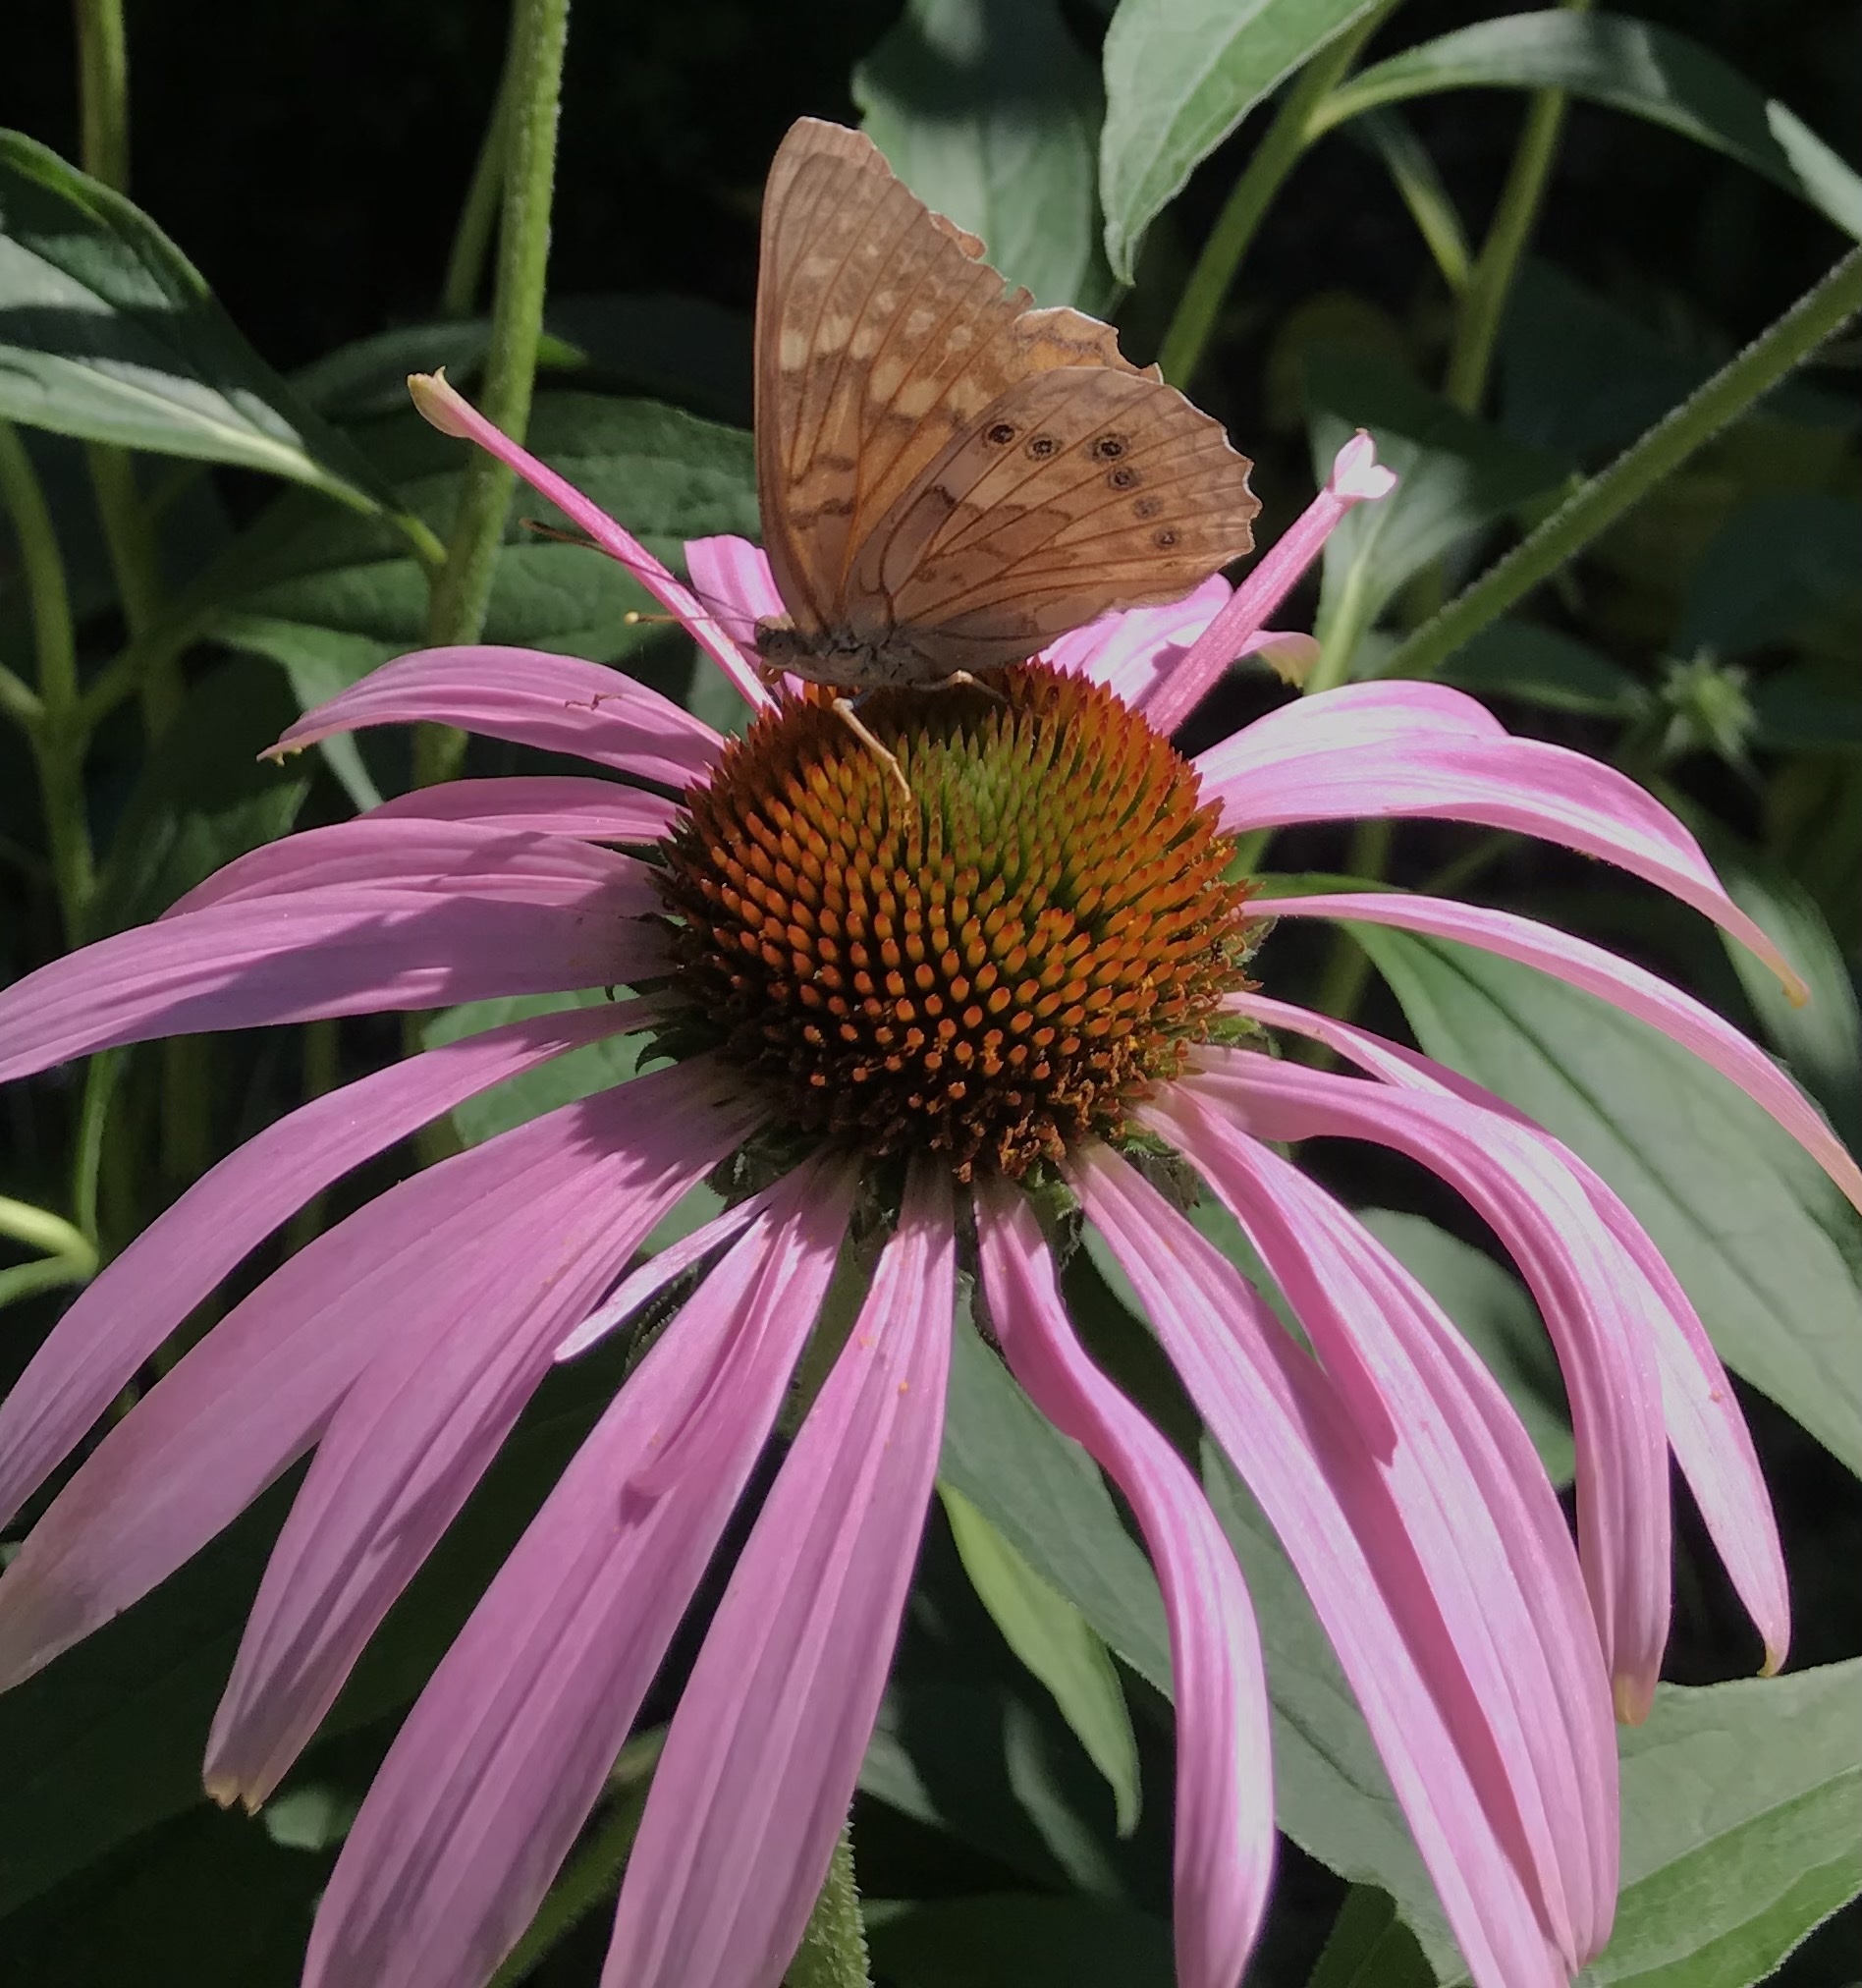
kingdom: Animalia
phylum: Arthropoda
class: Insecta
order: Lepidoptera
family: Nymphalidae
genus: Asterocampa
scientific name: Asterocampa clyton
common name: Tawny emperor
